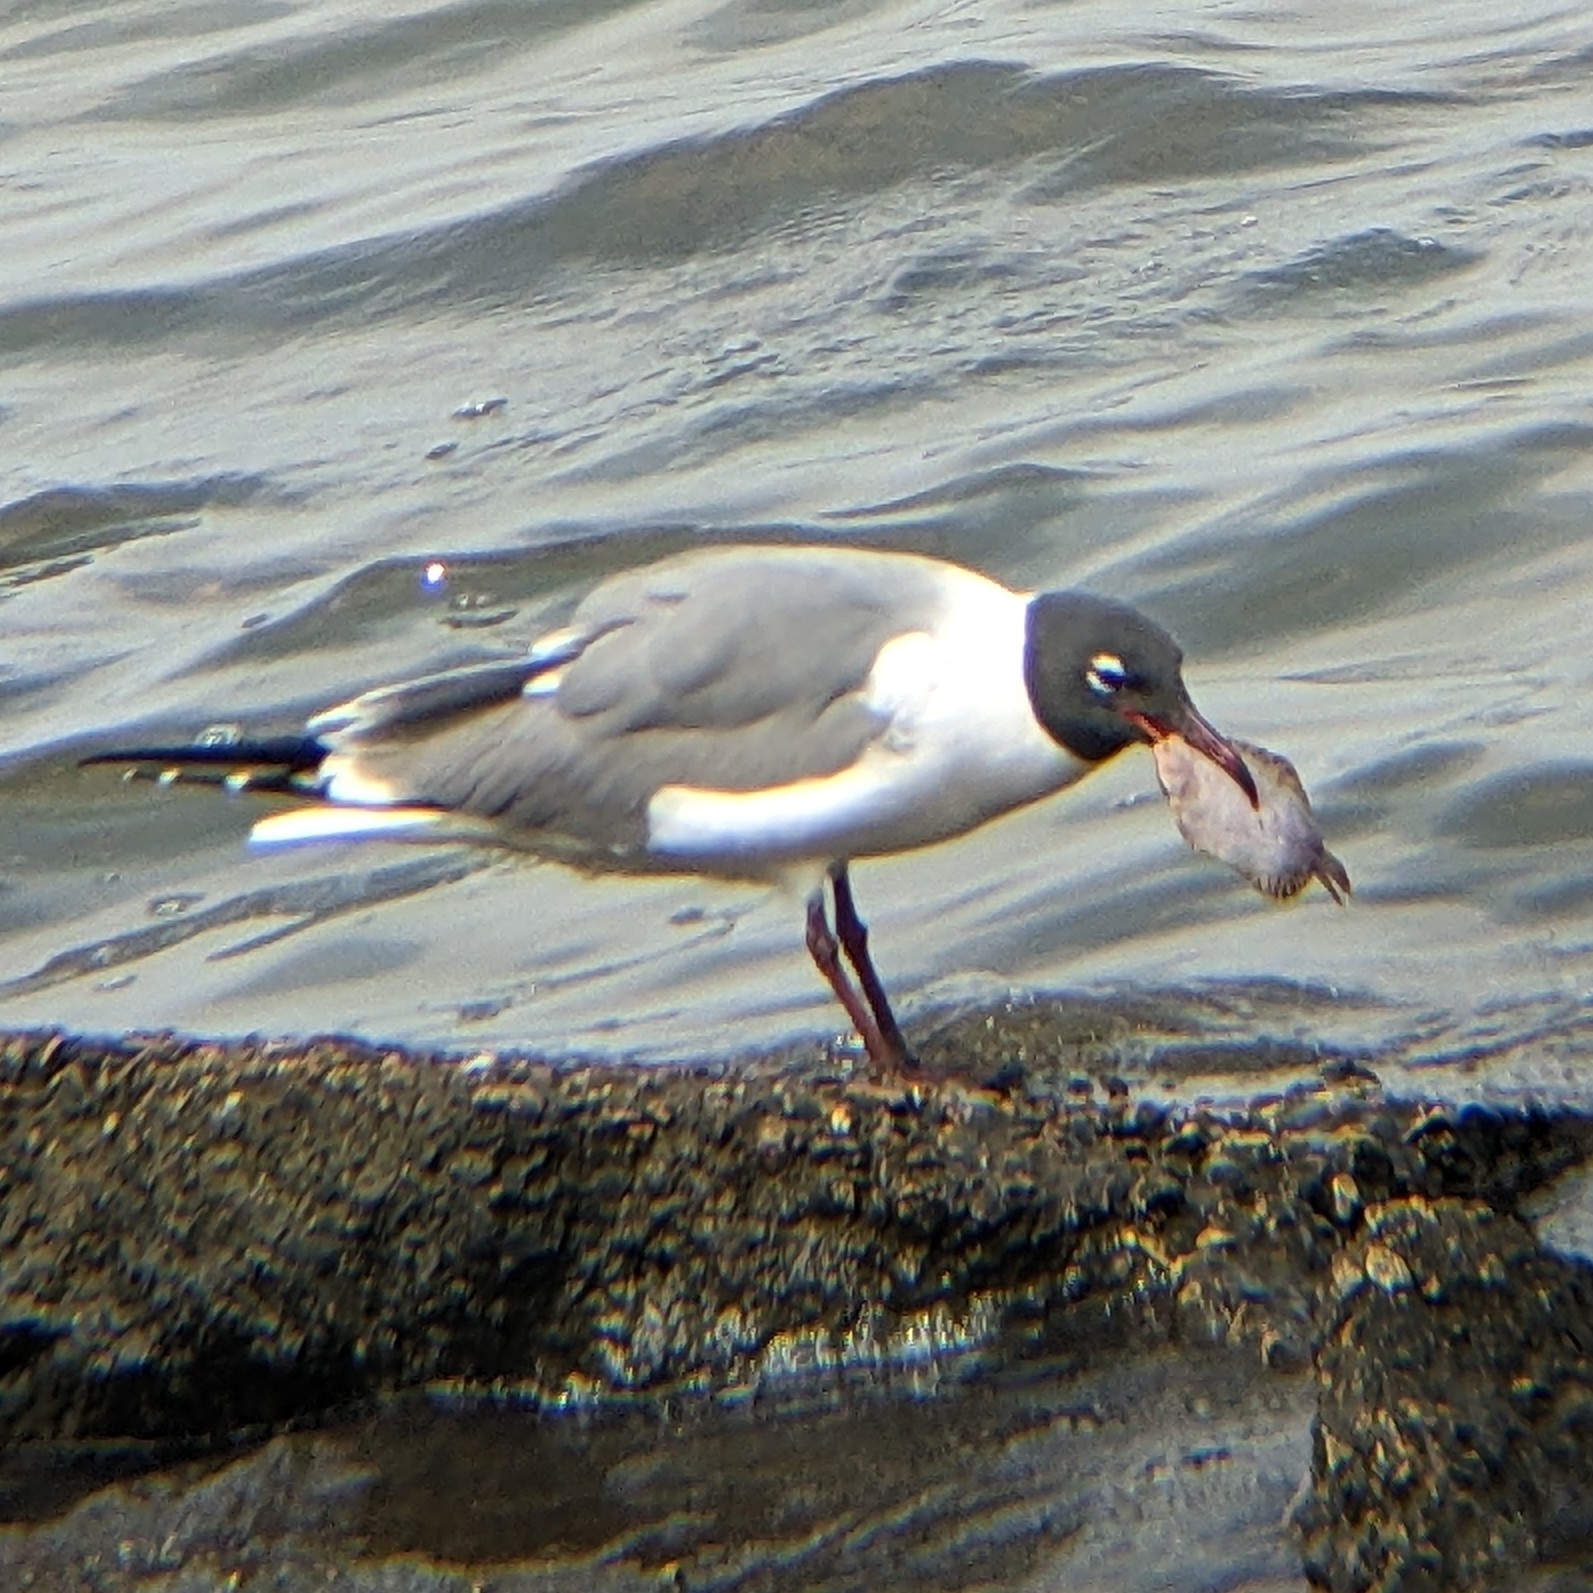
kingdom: Animalia
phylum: Chordata
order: Pleuronectiformes
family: Achiridae
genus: Trinectes
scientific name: Trinectes maculatus
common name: Hogchoker
